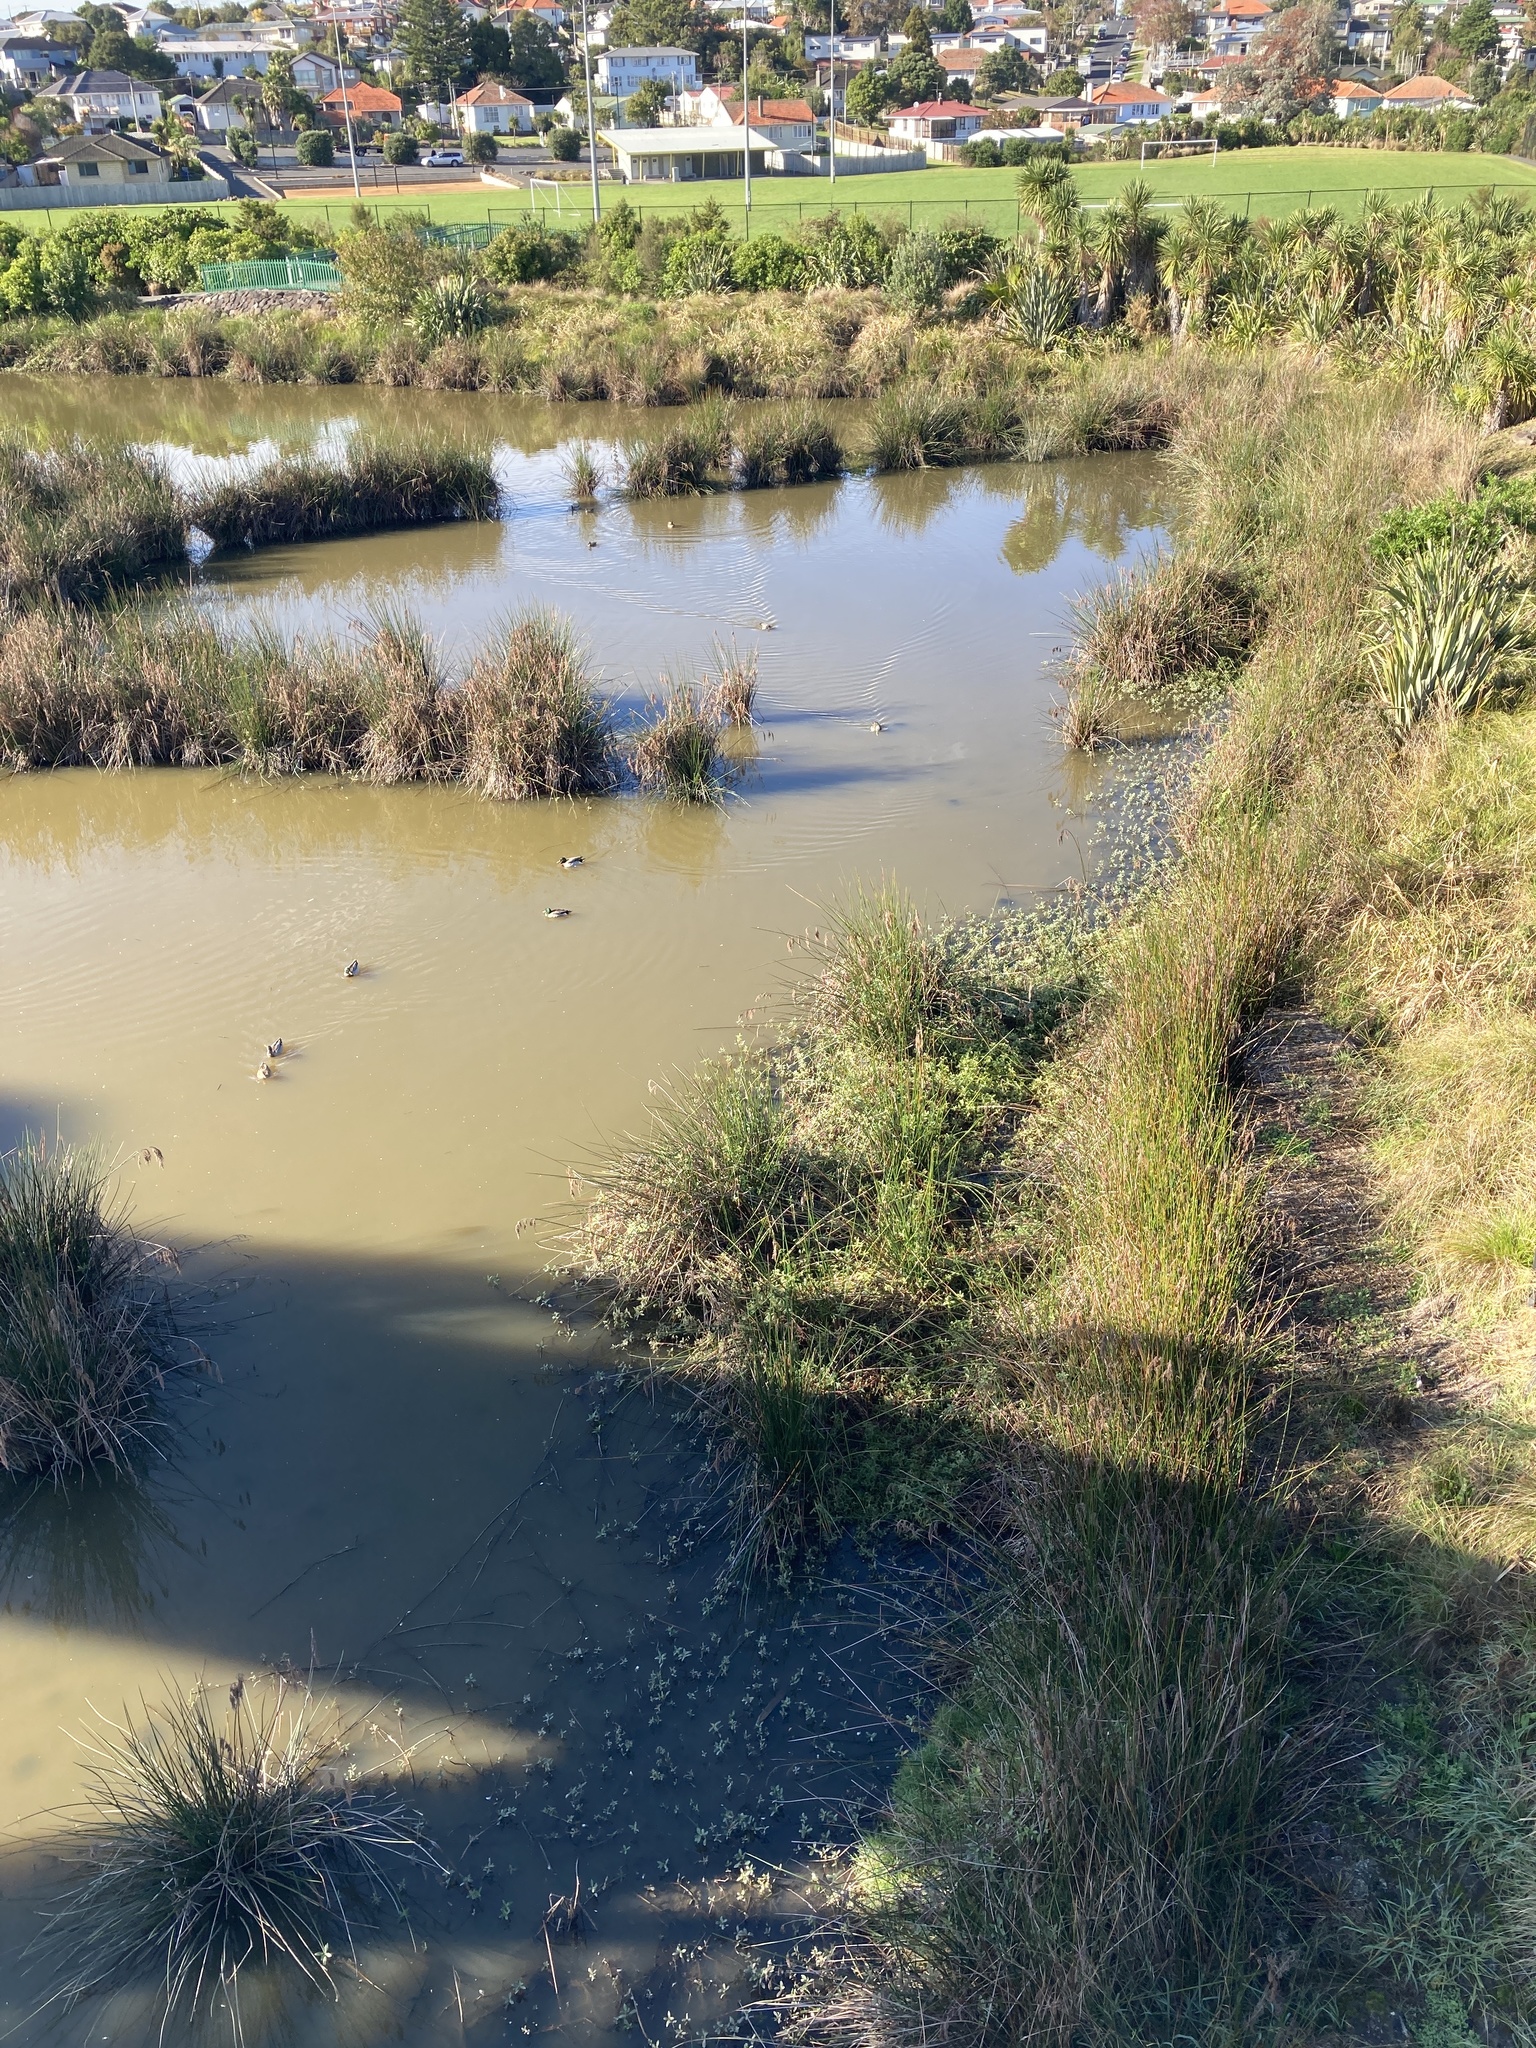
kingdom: Animalia
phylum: Chordata
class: Aves
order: Anseriformes
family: Anatidae
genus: Anas
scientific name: Anas
